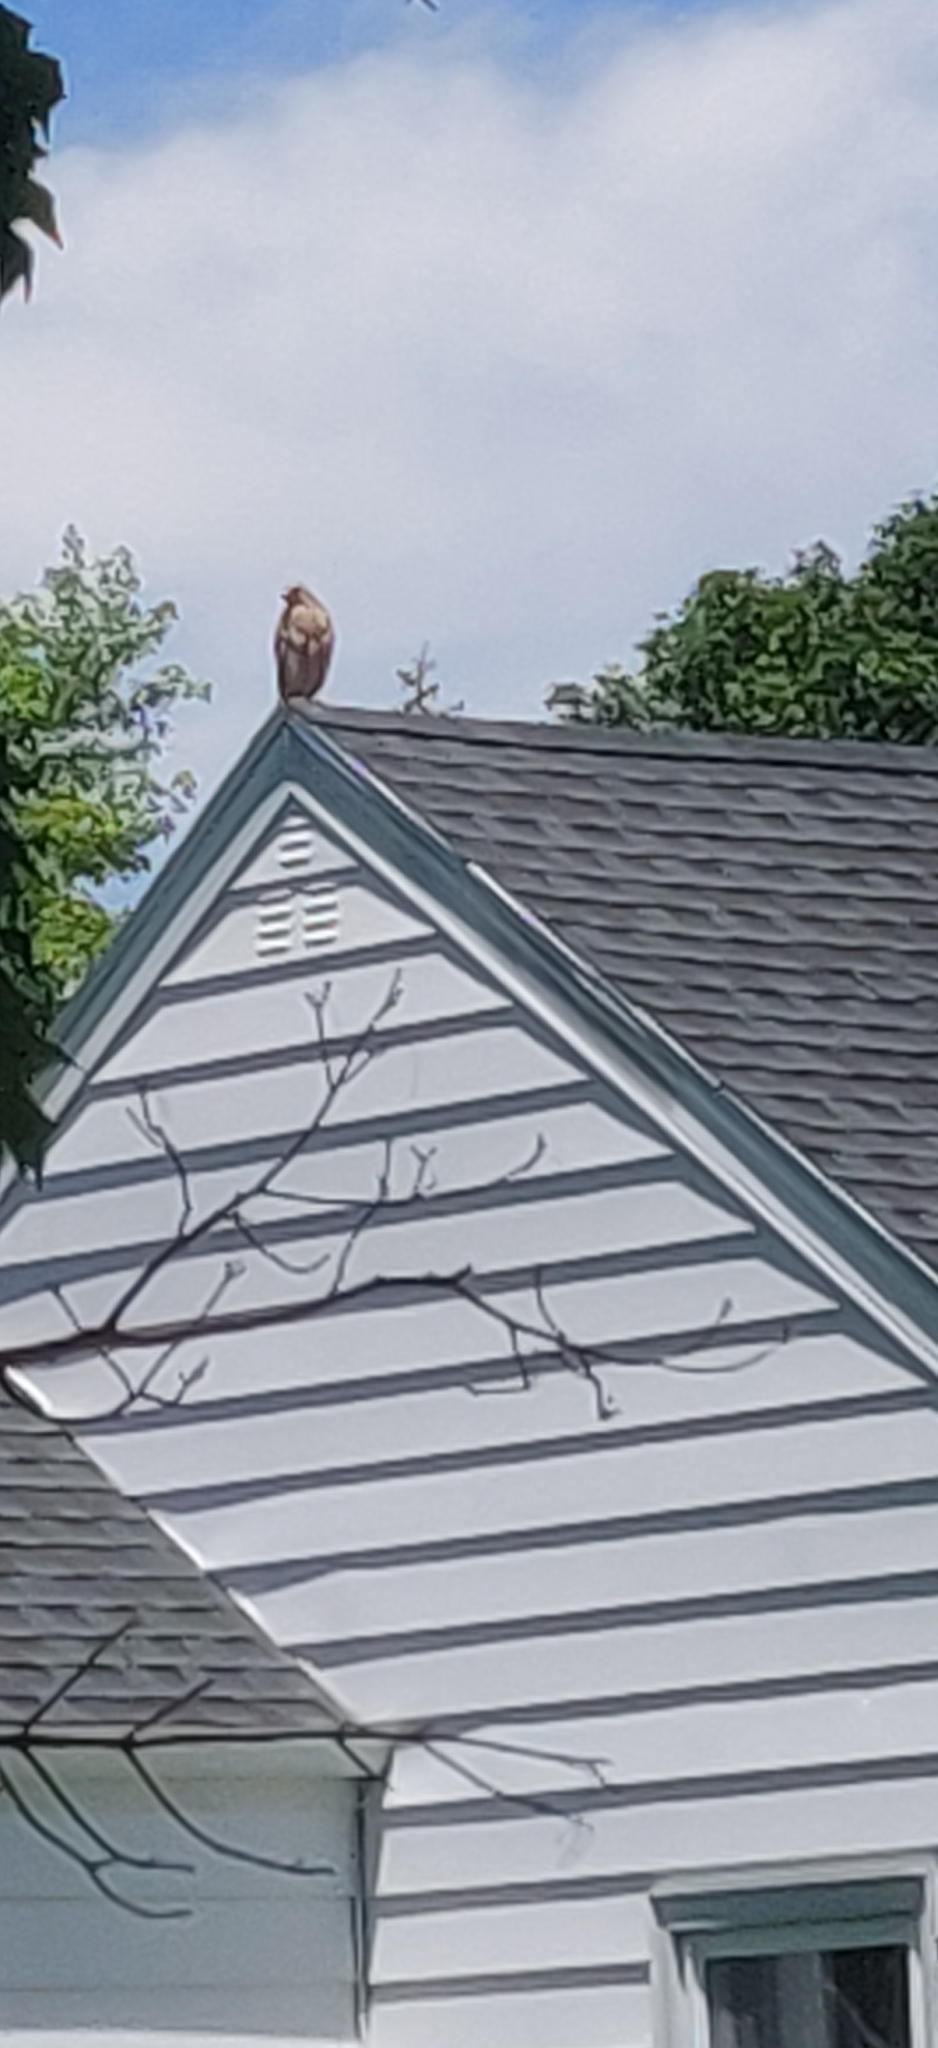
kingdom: Animalia
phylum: Chordata
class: Aves
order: Accipitriformes
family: Accipitridae
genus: Buteo
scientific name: Buteo lineatus
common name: Red-shouldered hawk
